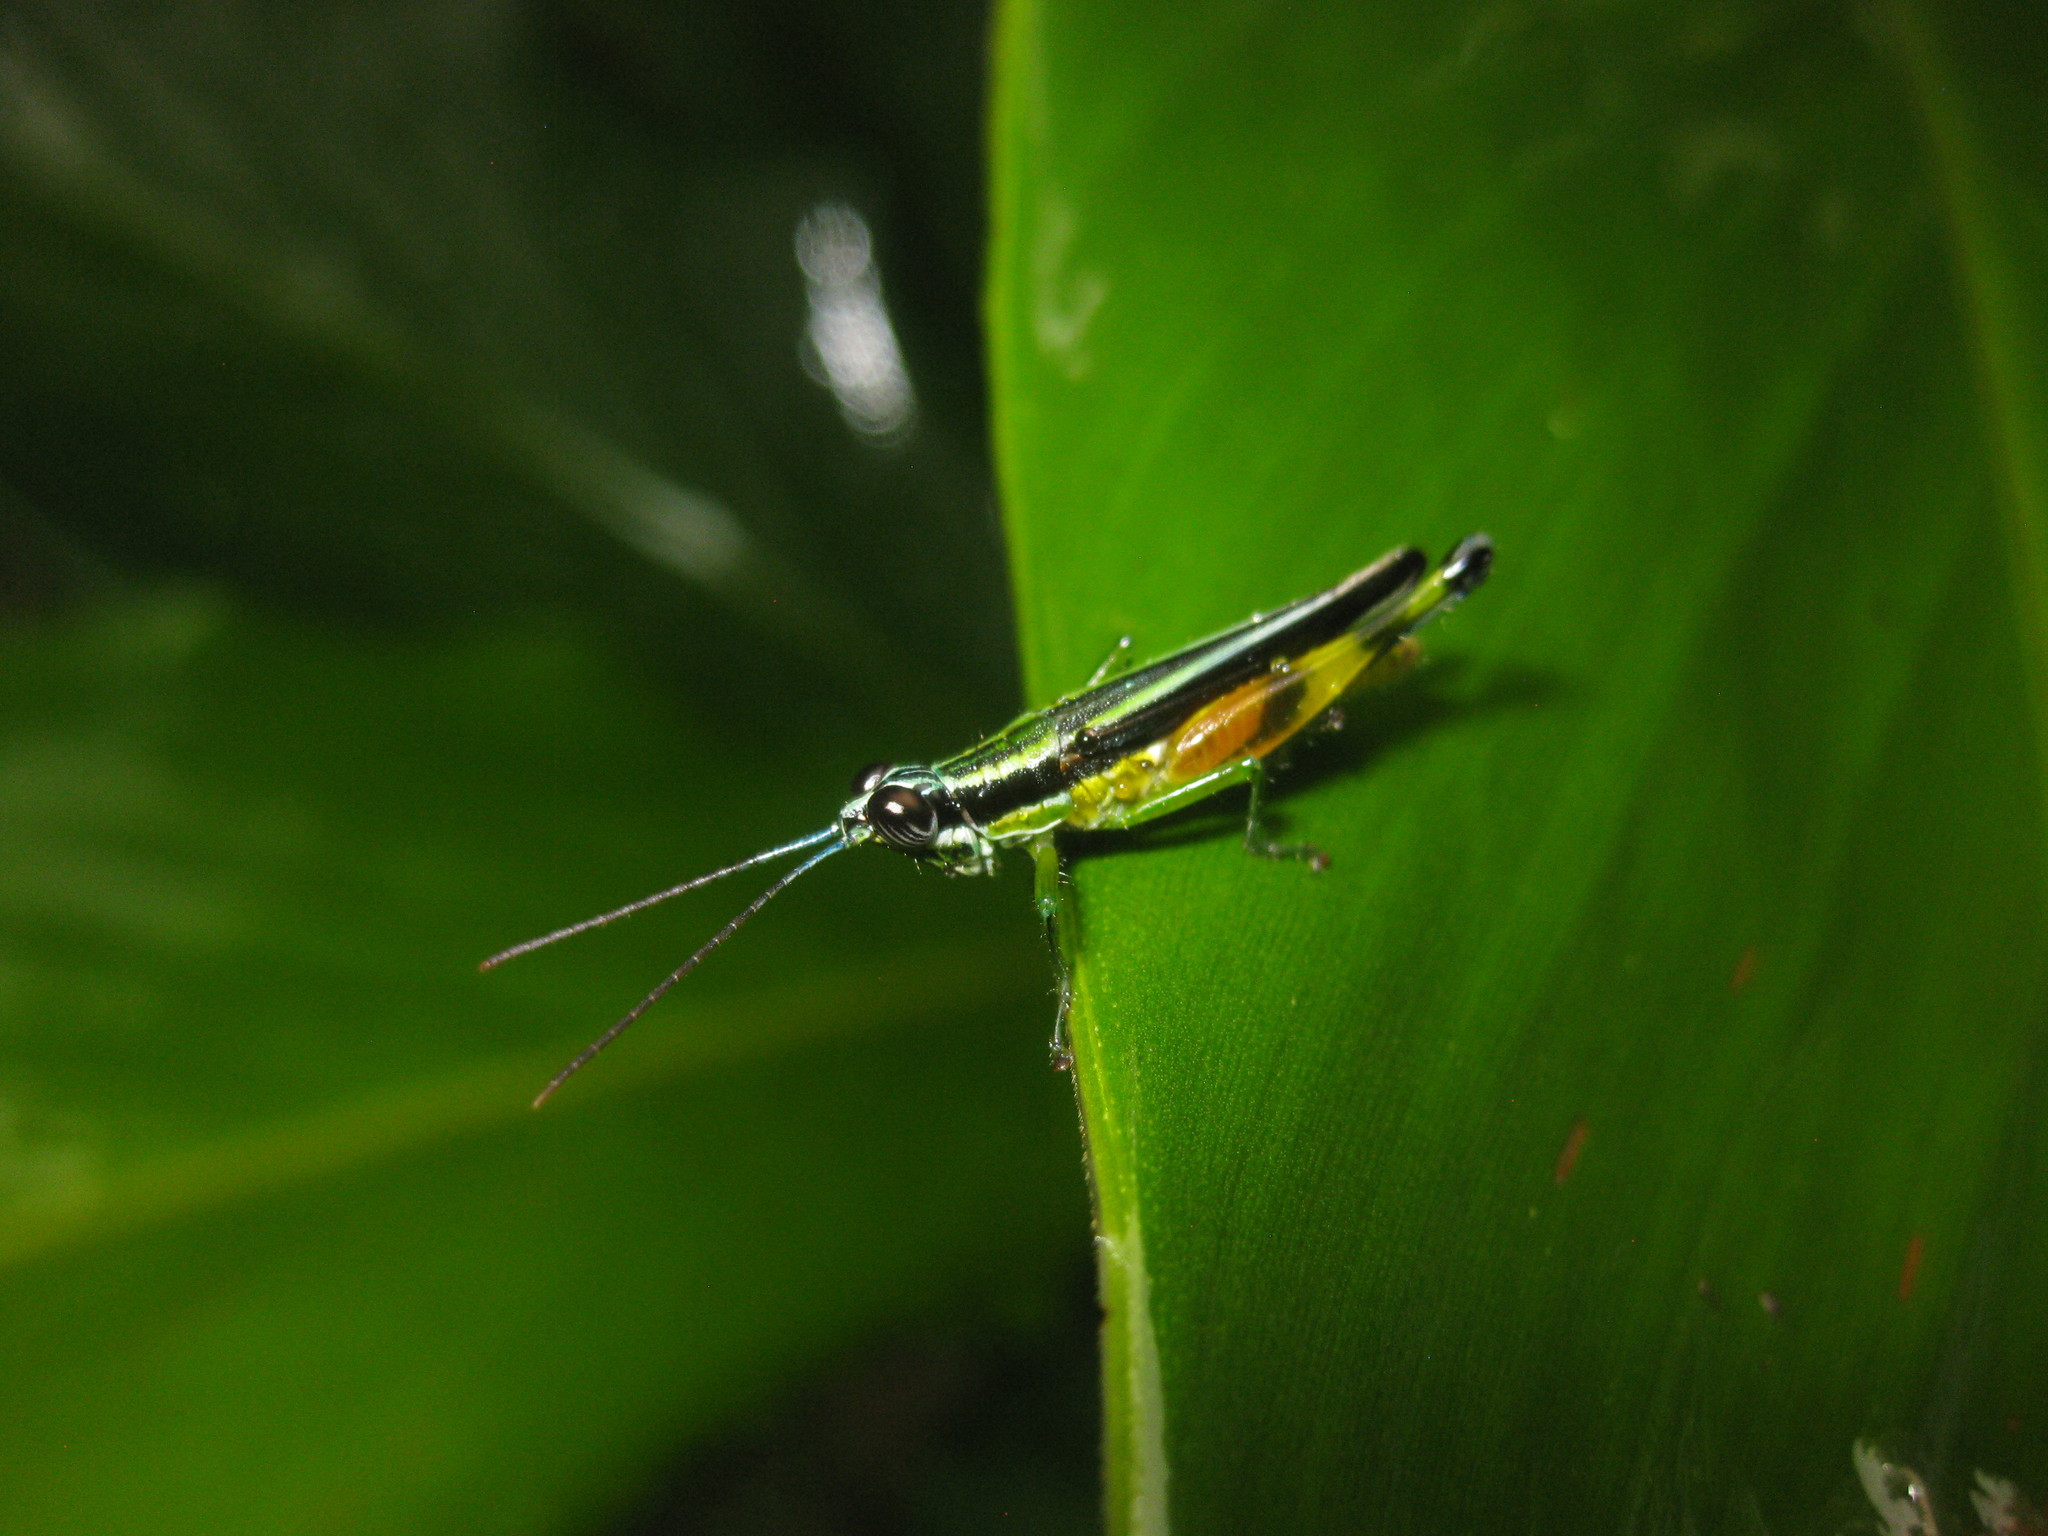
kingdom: Animalia
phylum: Arthropoda
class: Insecta
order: Orthoptera
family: Acrididae
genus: Stenopola
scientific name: Stenopola boliviana
